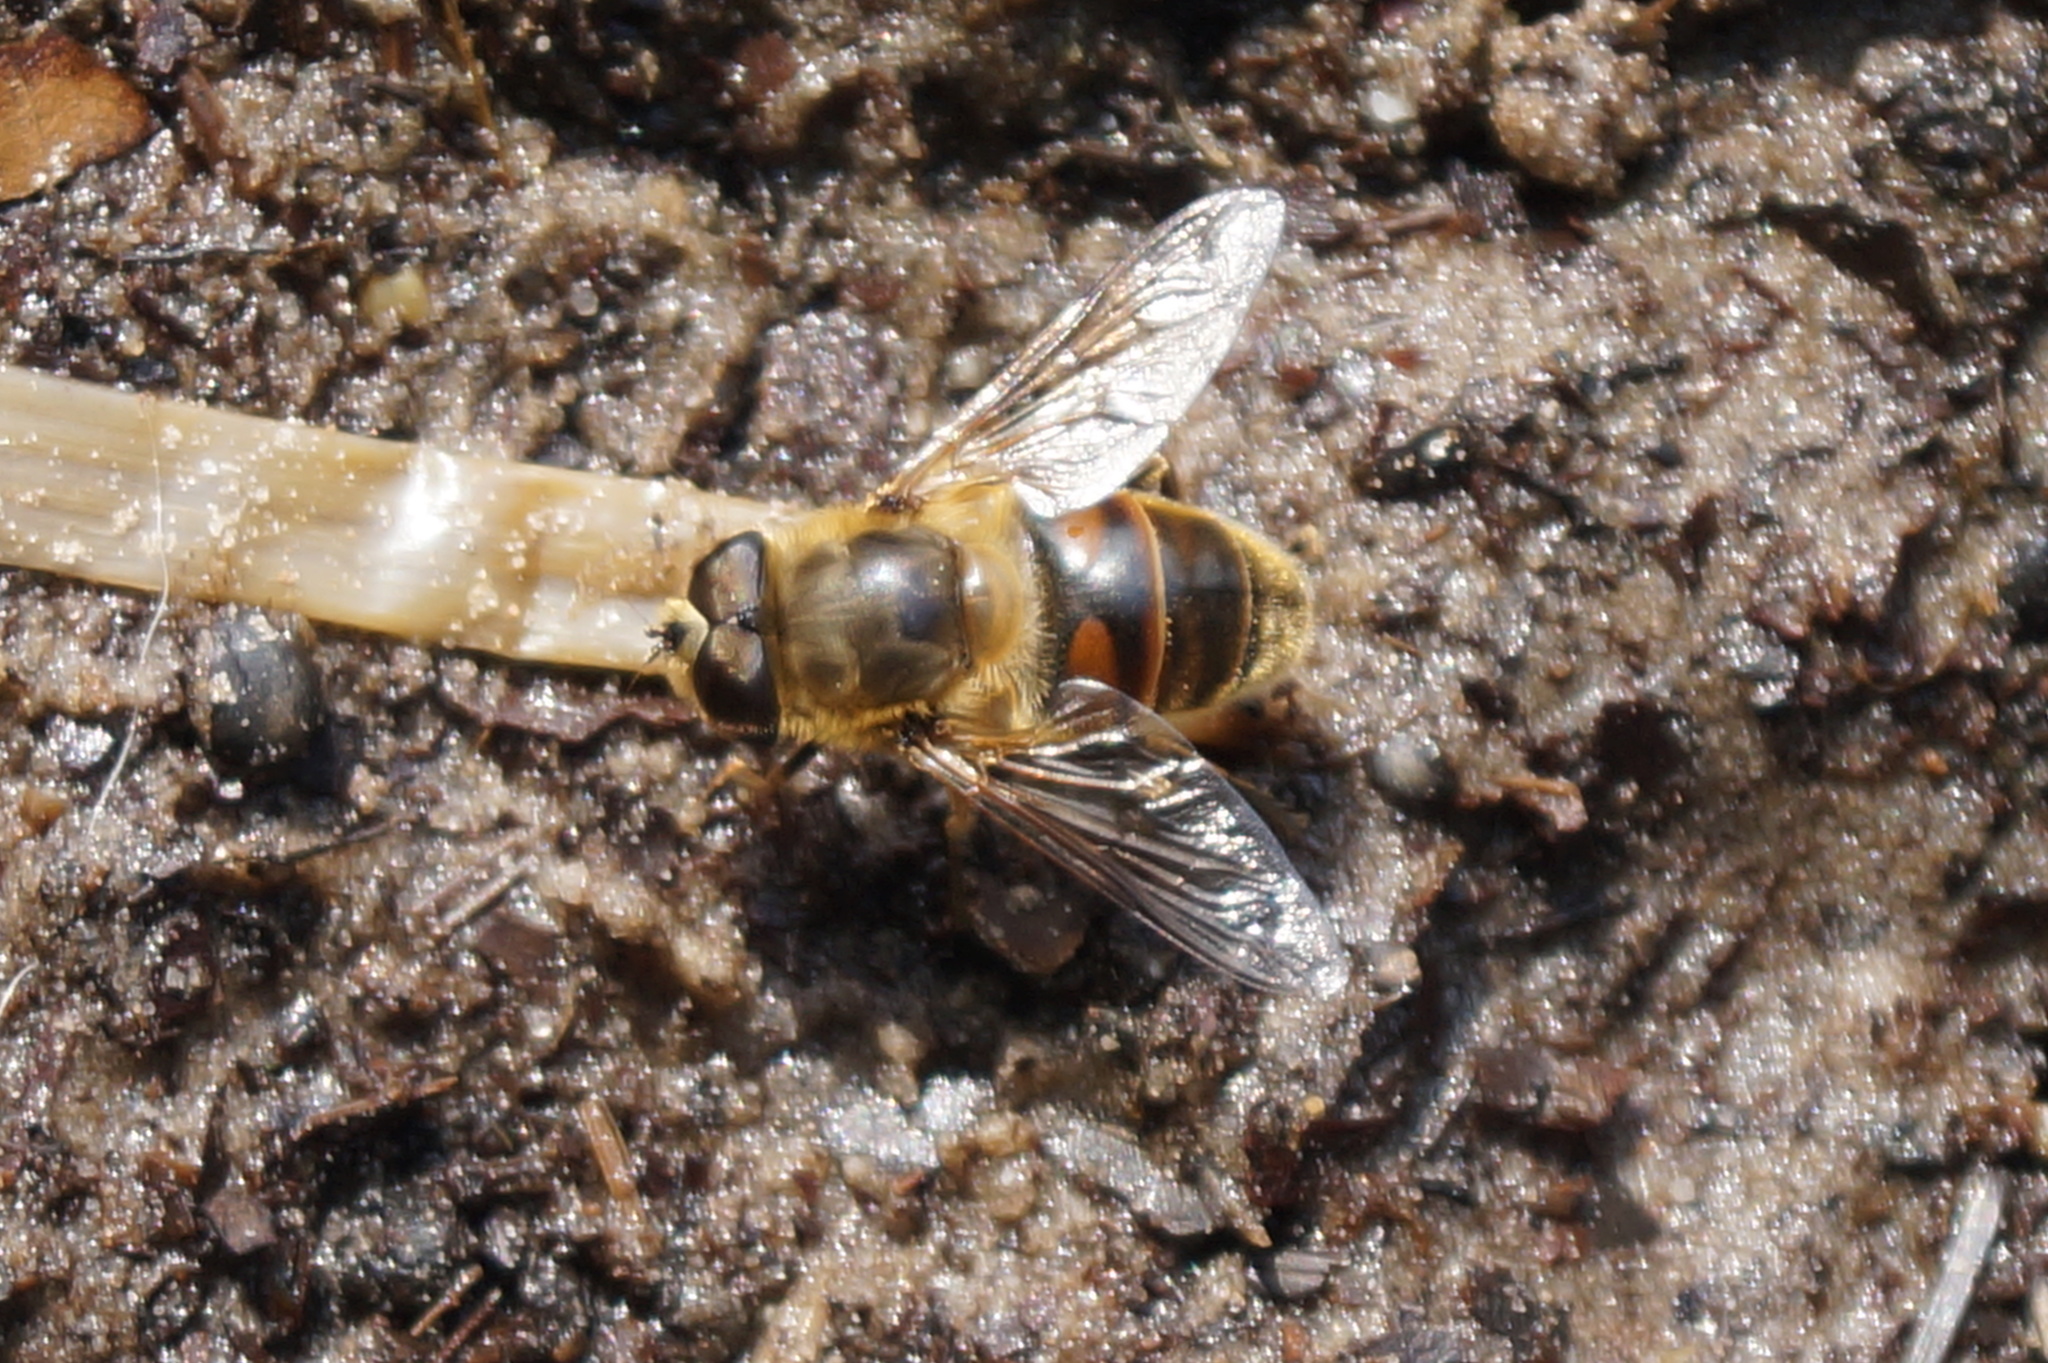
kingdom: Animalia
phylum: Arthropoda
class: Insecta
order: Diptera
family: Syrphidae
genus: Eristalis
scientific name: Eristalis tenax
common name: Drone fly
